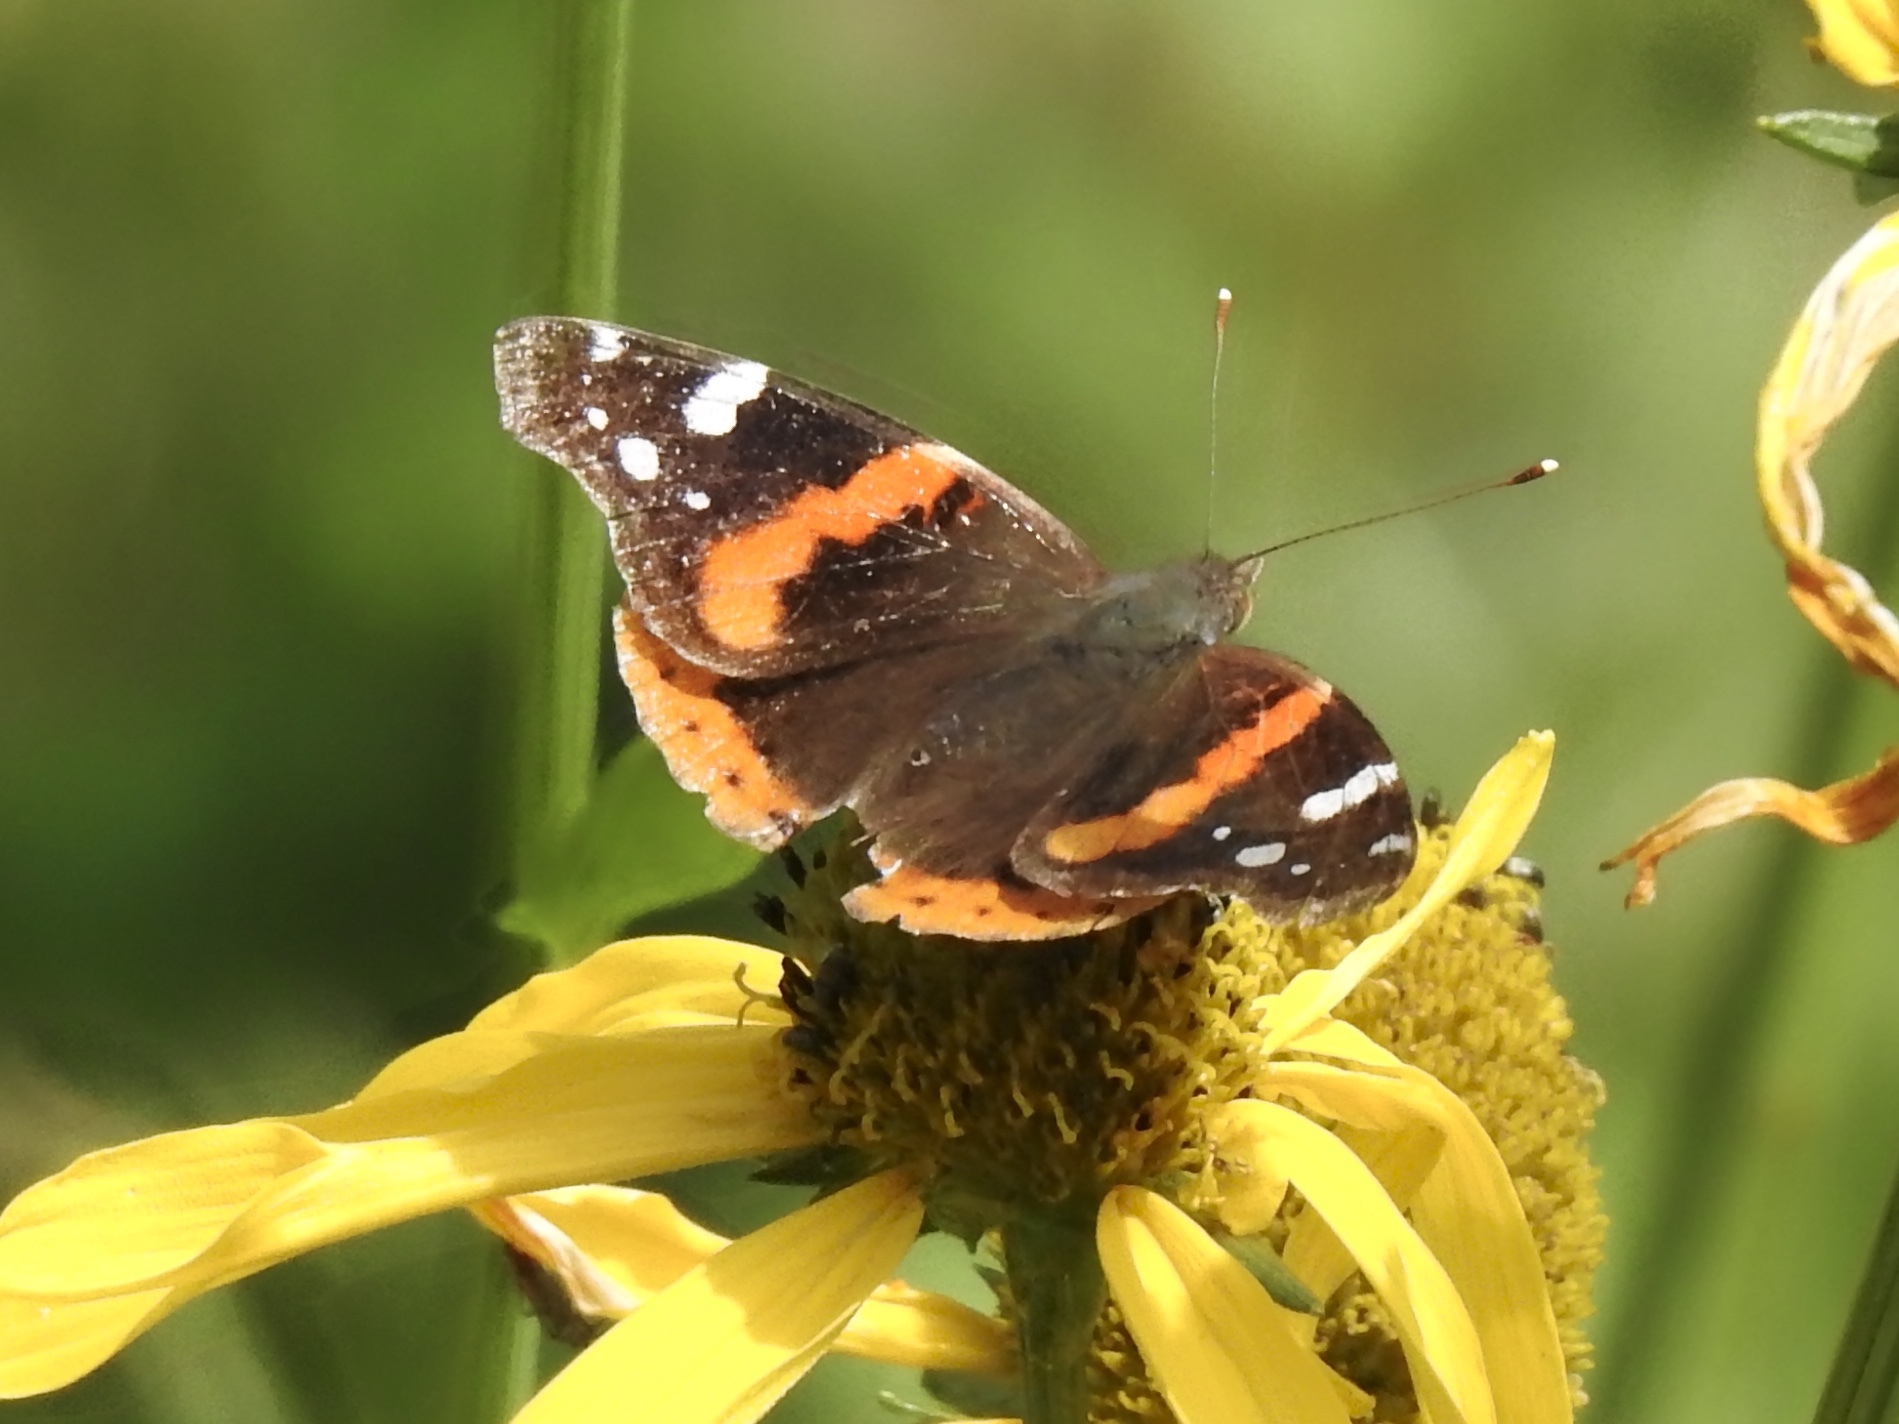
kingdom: Animalia
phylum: Arthropoda
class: Insecta
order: Lepidoptera
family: Nymphalidae
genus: Vanessa
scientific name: Vanessa atalanta
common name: Red admiral
